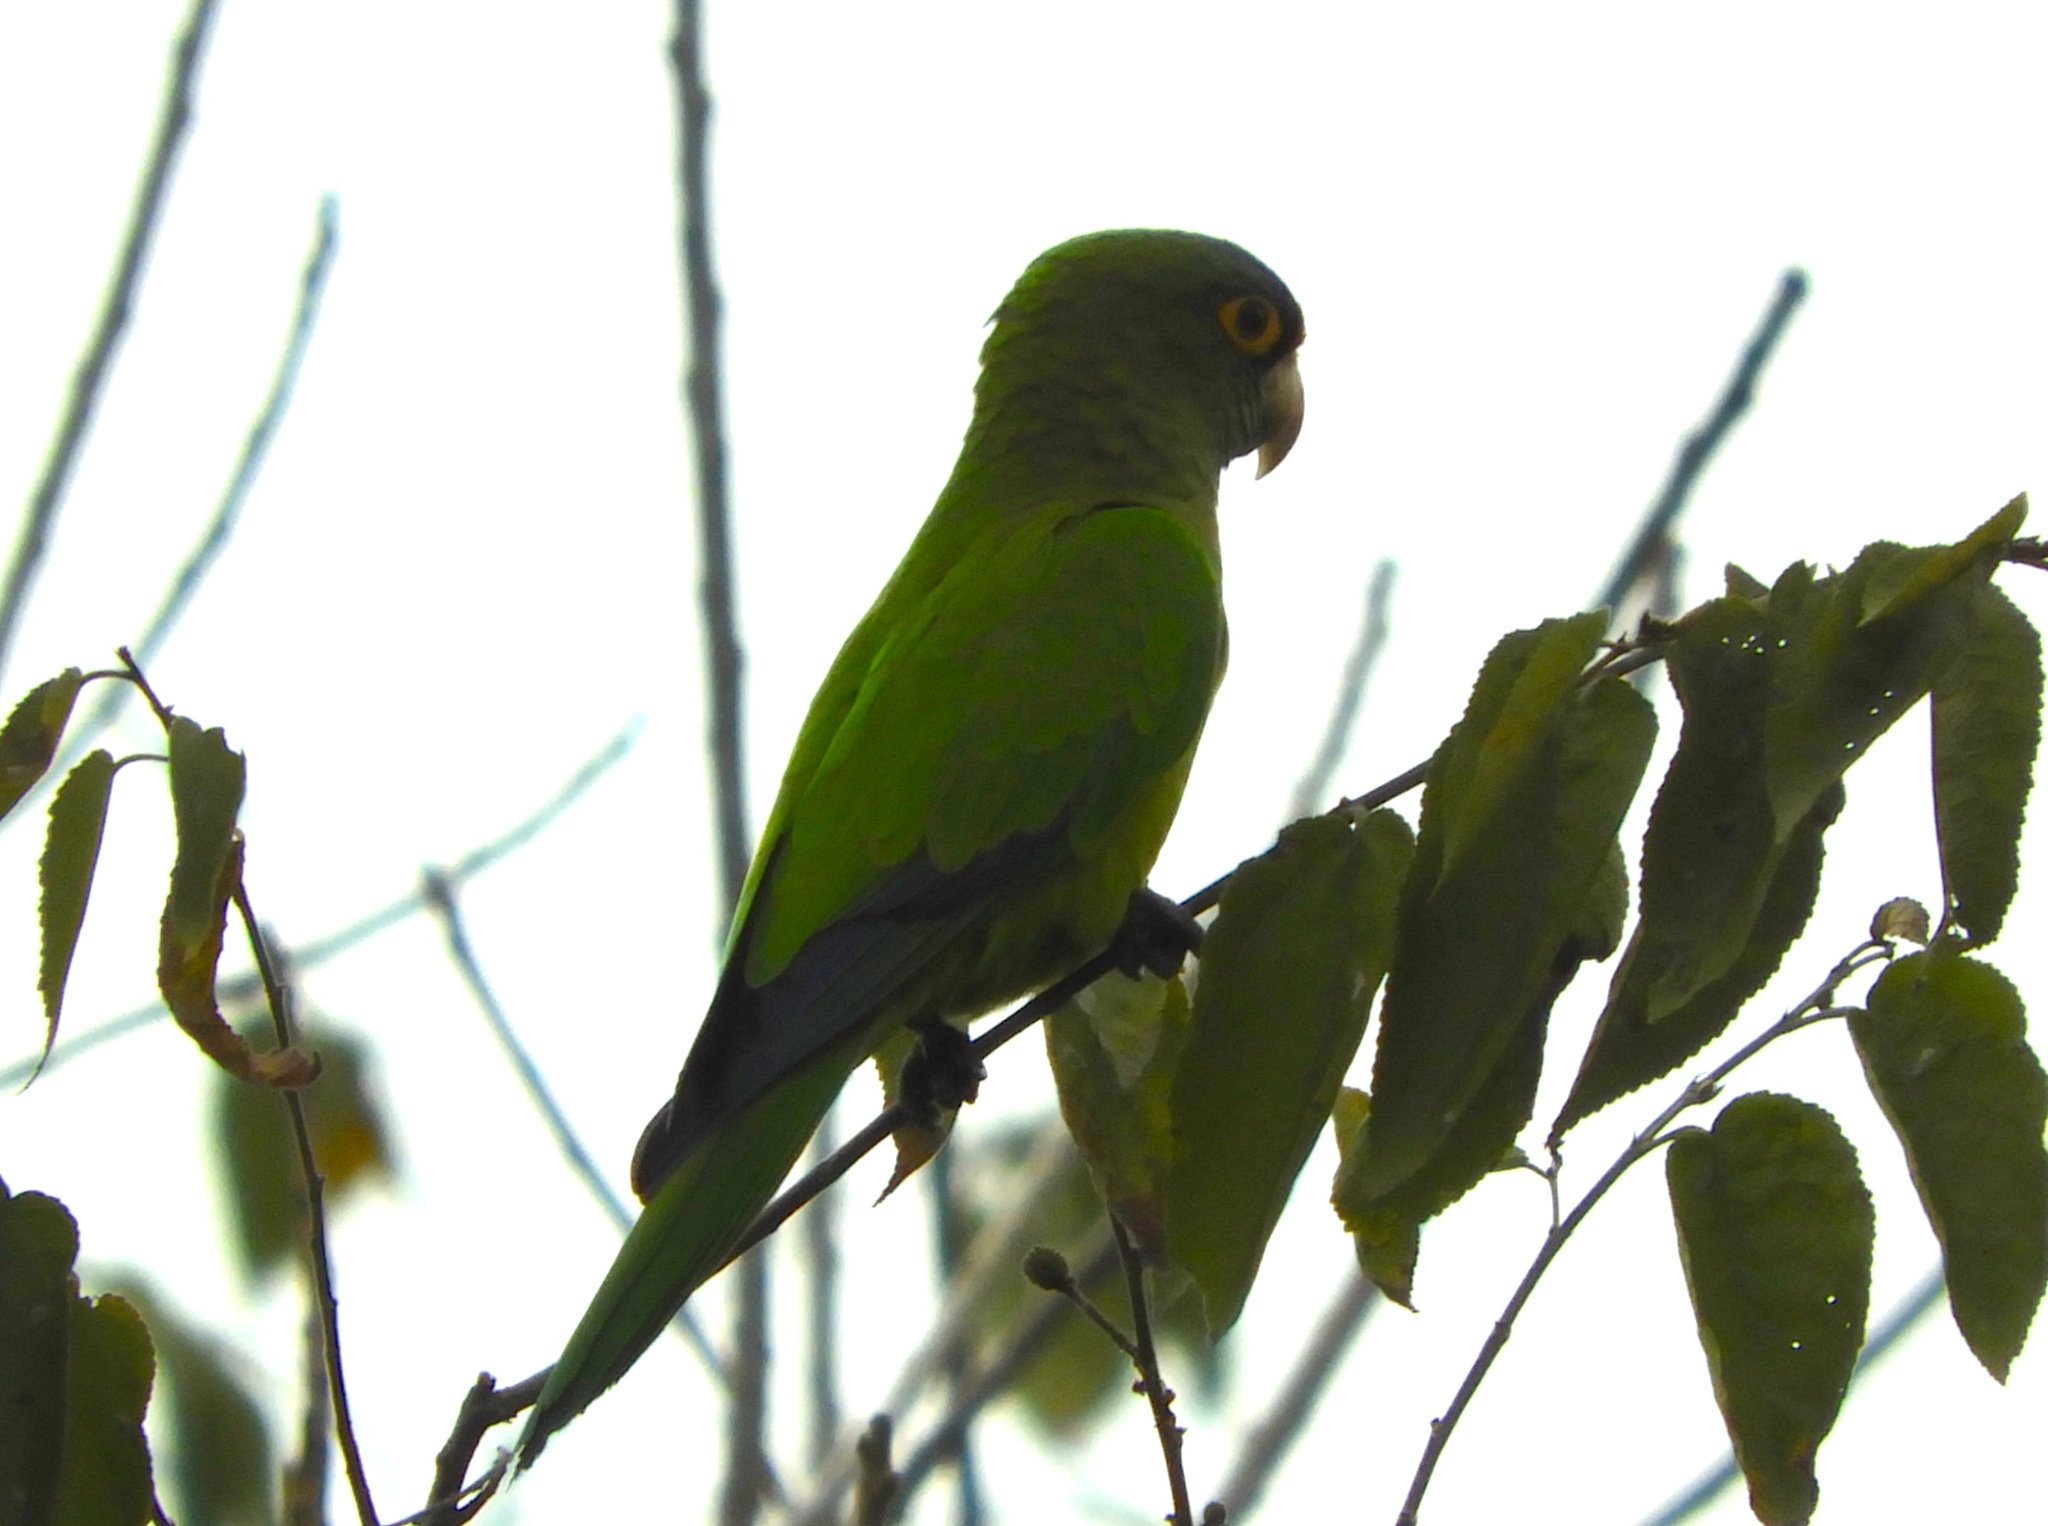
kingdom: Animalia
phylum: Chordata
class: Aves
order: Psittaciformes
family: Psittacidae
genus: Aratinga
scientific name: Aratinga canicularis
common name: Orange-fronted parakeet
